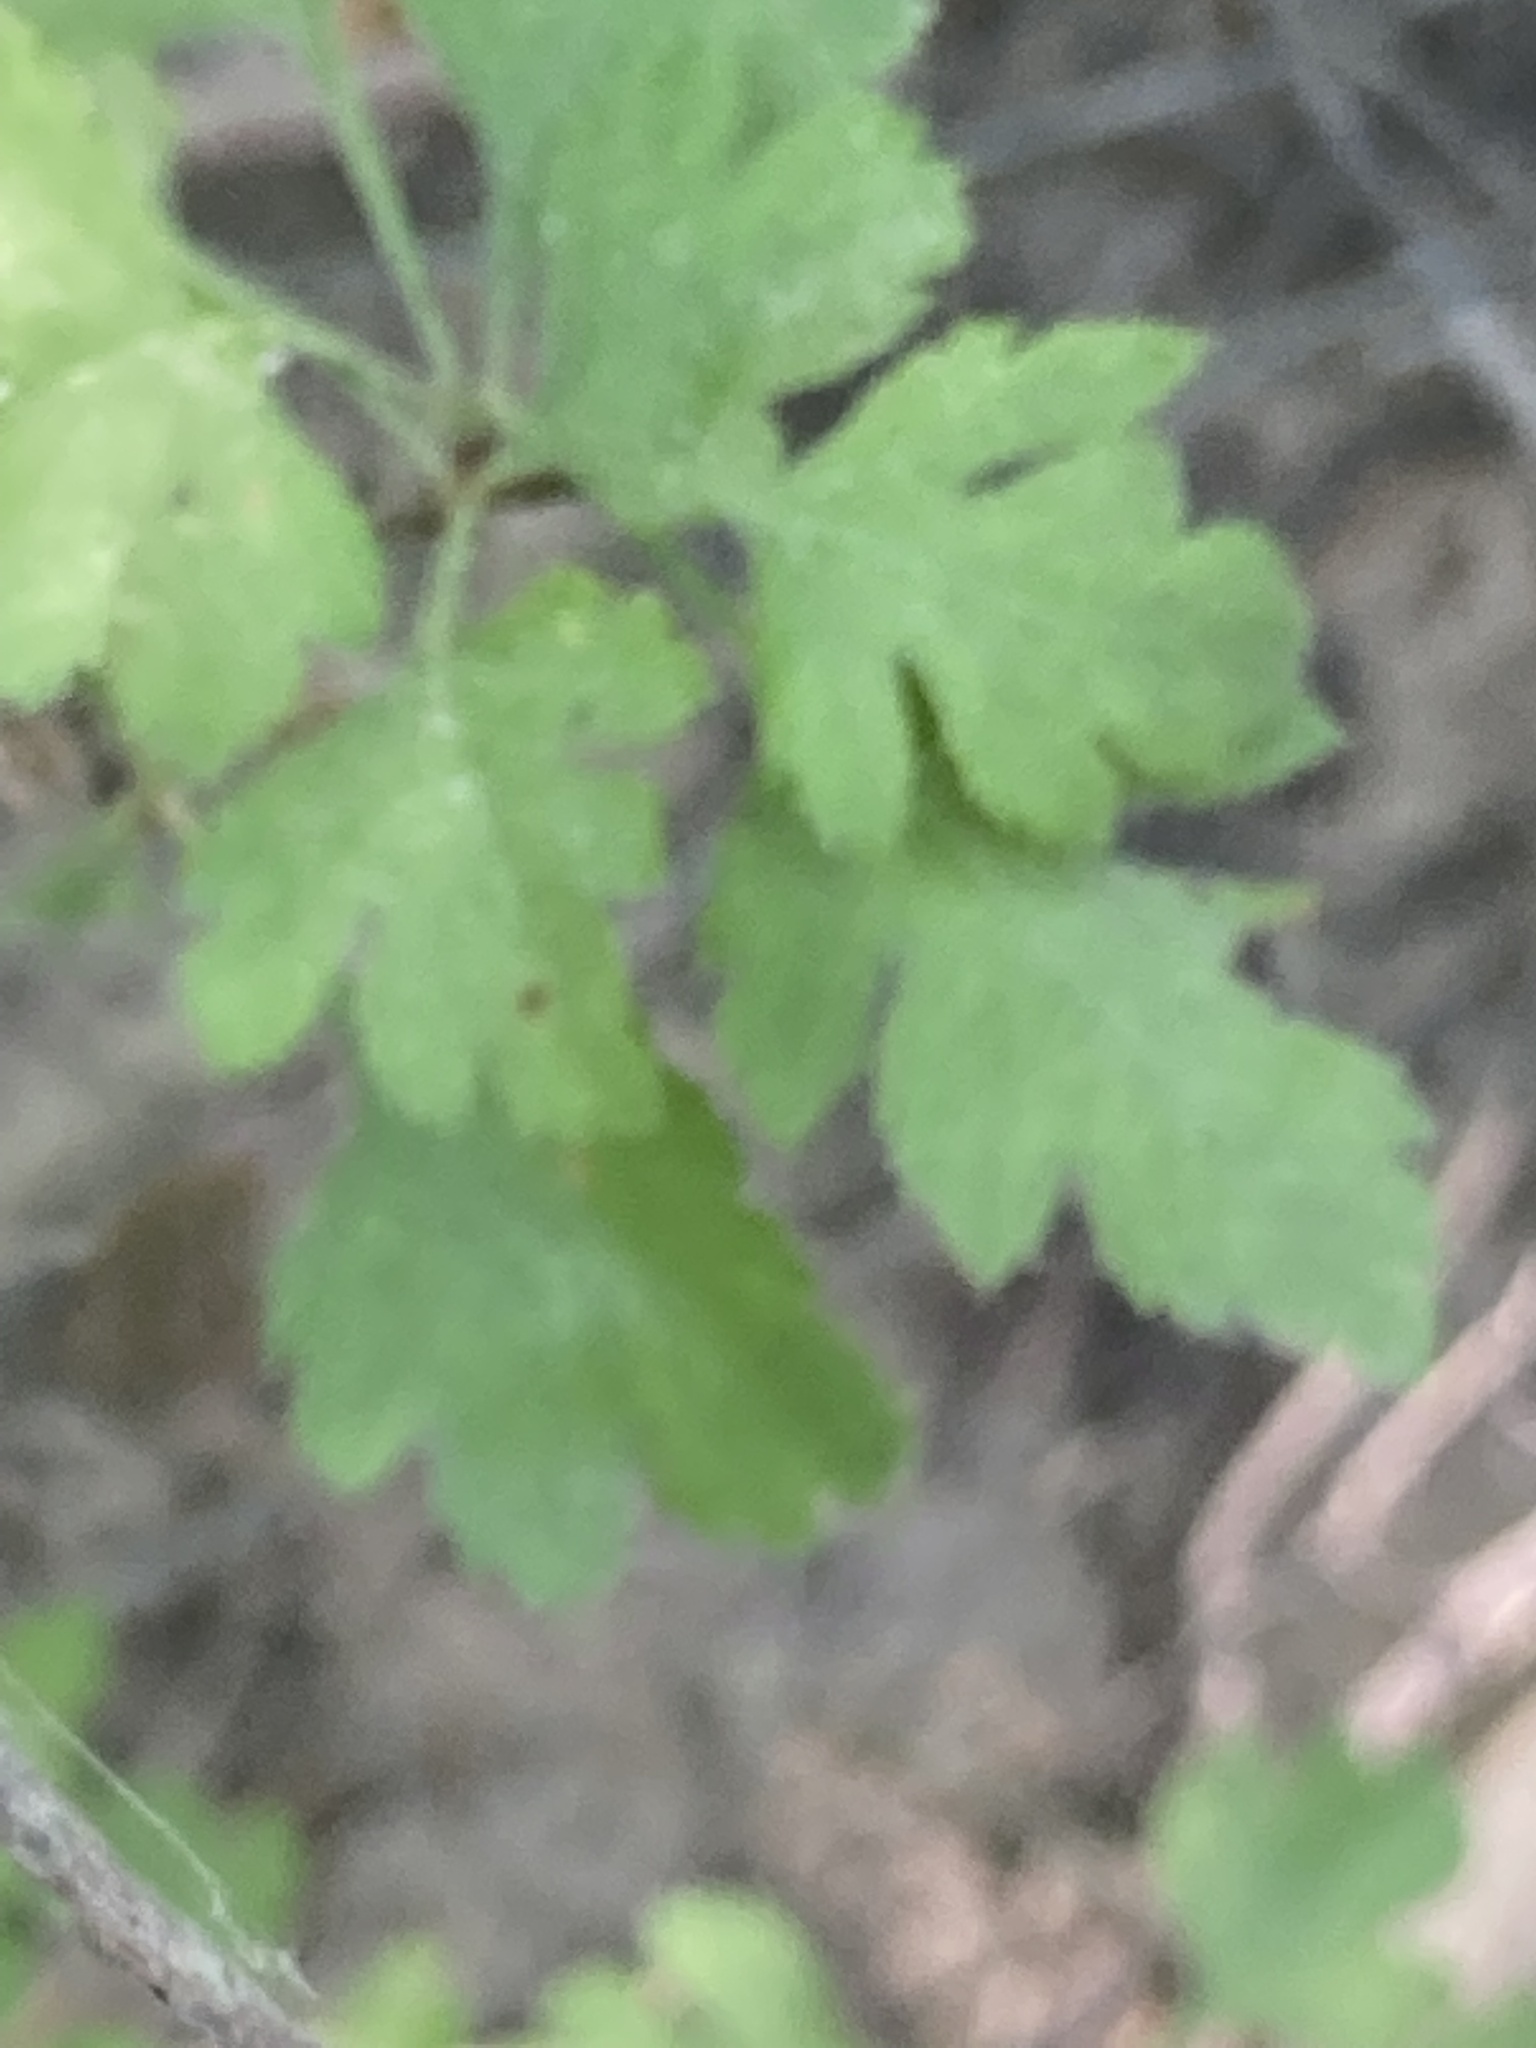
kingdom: Plantae
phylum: Tracheophyta
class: Magnoliopsida
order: Rosales
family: Rosaceae
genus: Crataegus
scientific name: Crataegus marshallii
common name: Parsley-hawthorn
